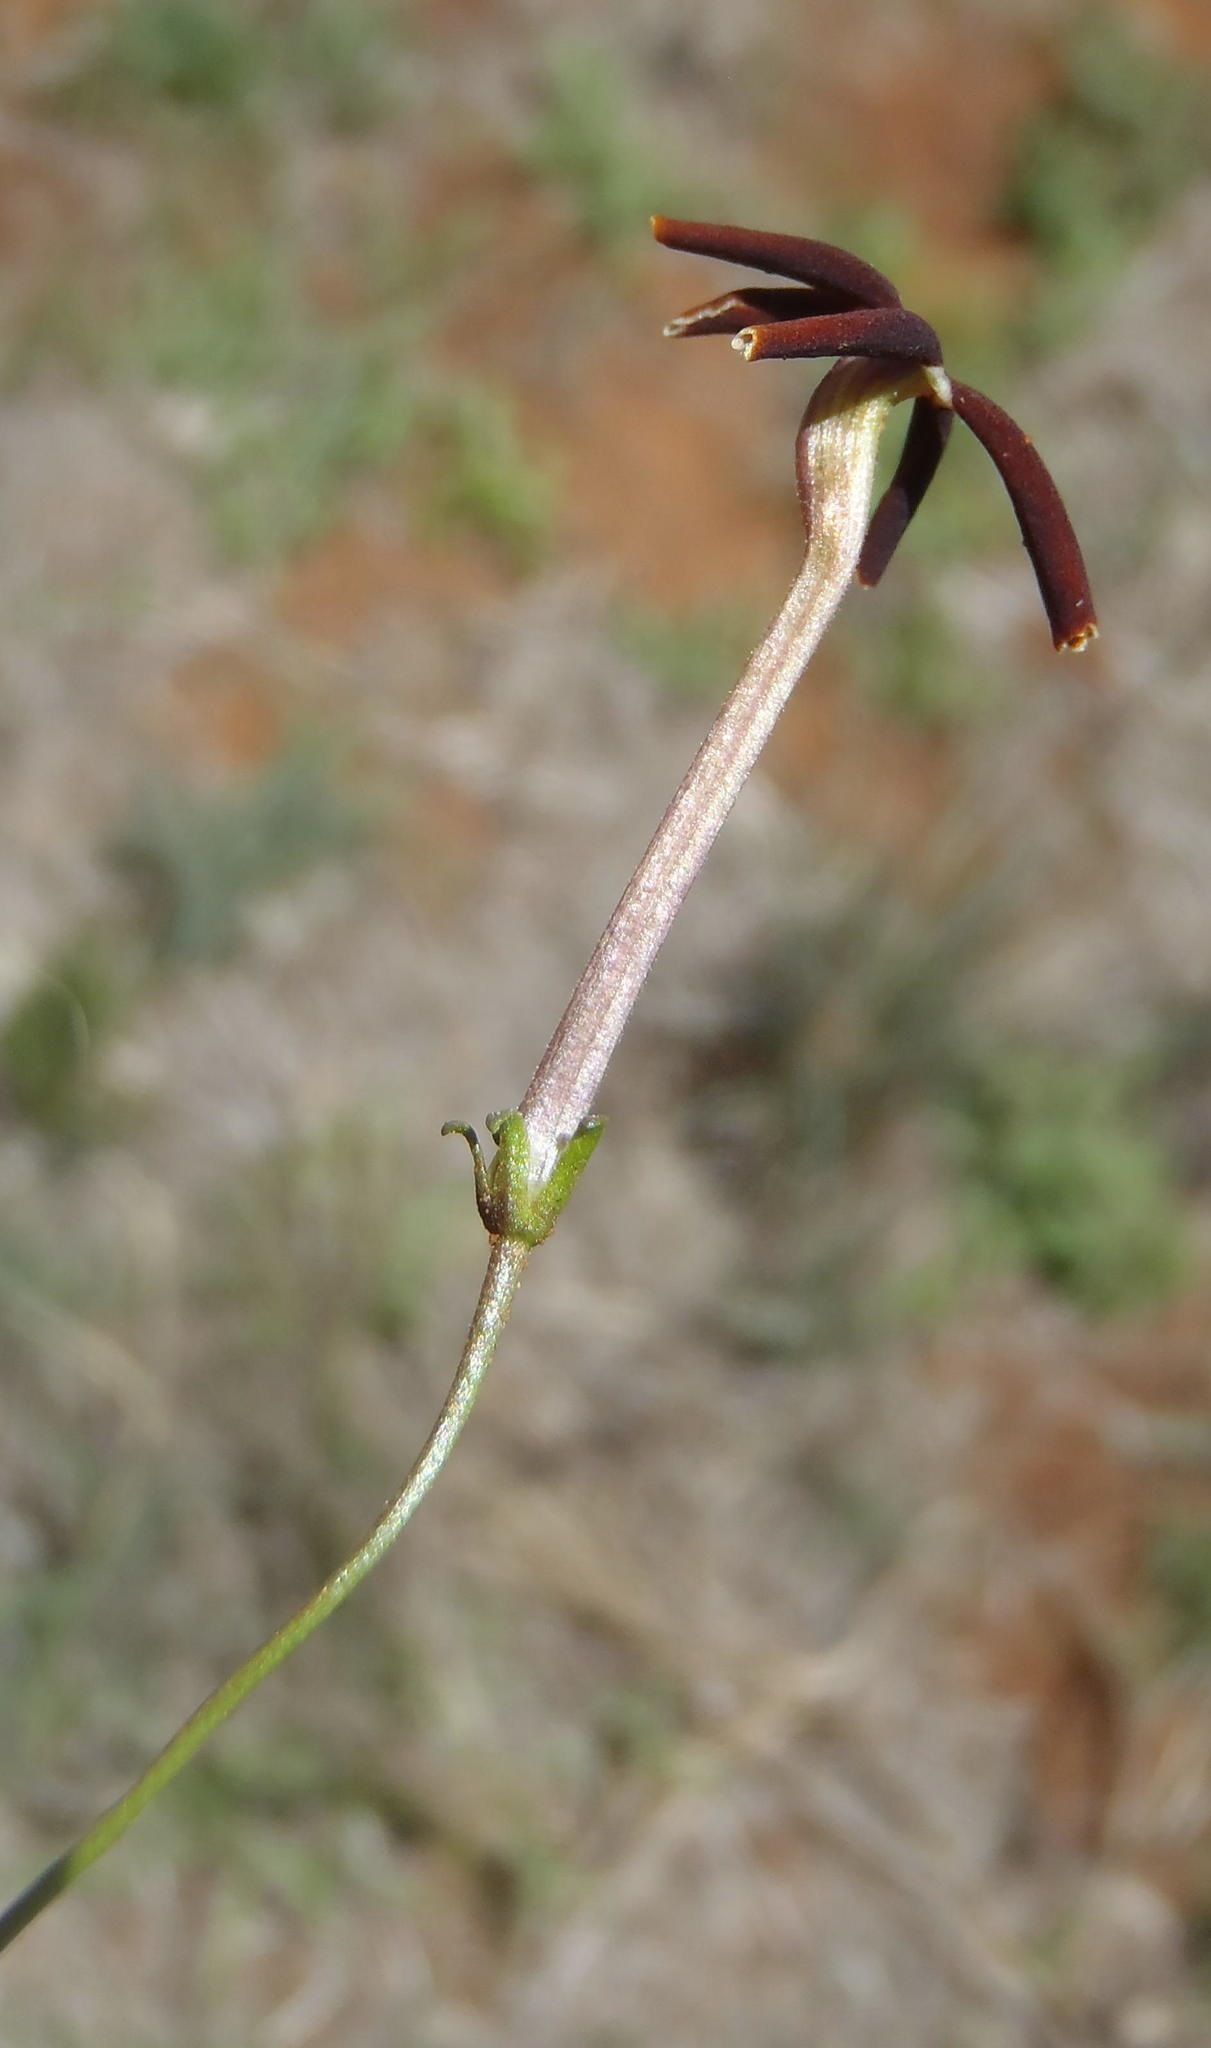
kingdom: Plantae
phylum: Tracheophyta
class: Magnoliopsida
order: Lamiales
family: Scrophulariaceae
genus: Jamesbrittenia
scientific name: Jamesbrittenia atropurpurea
